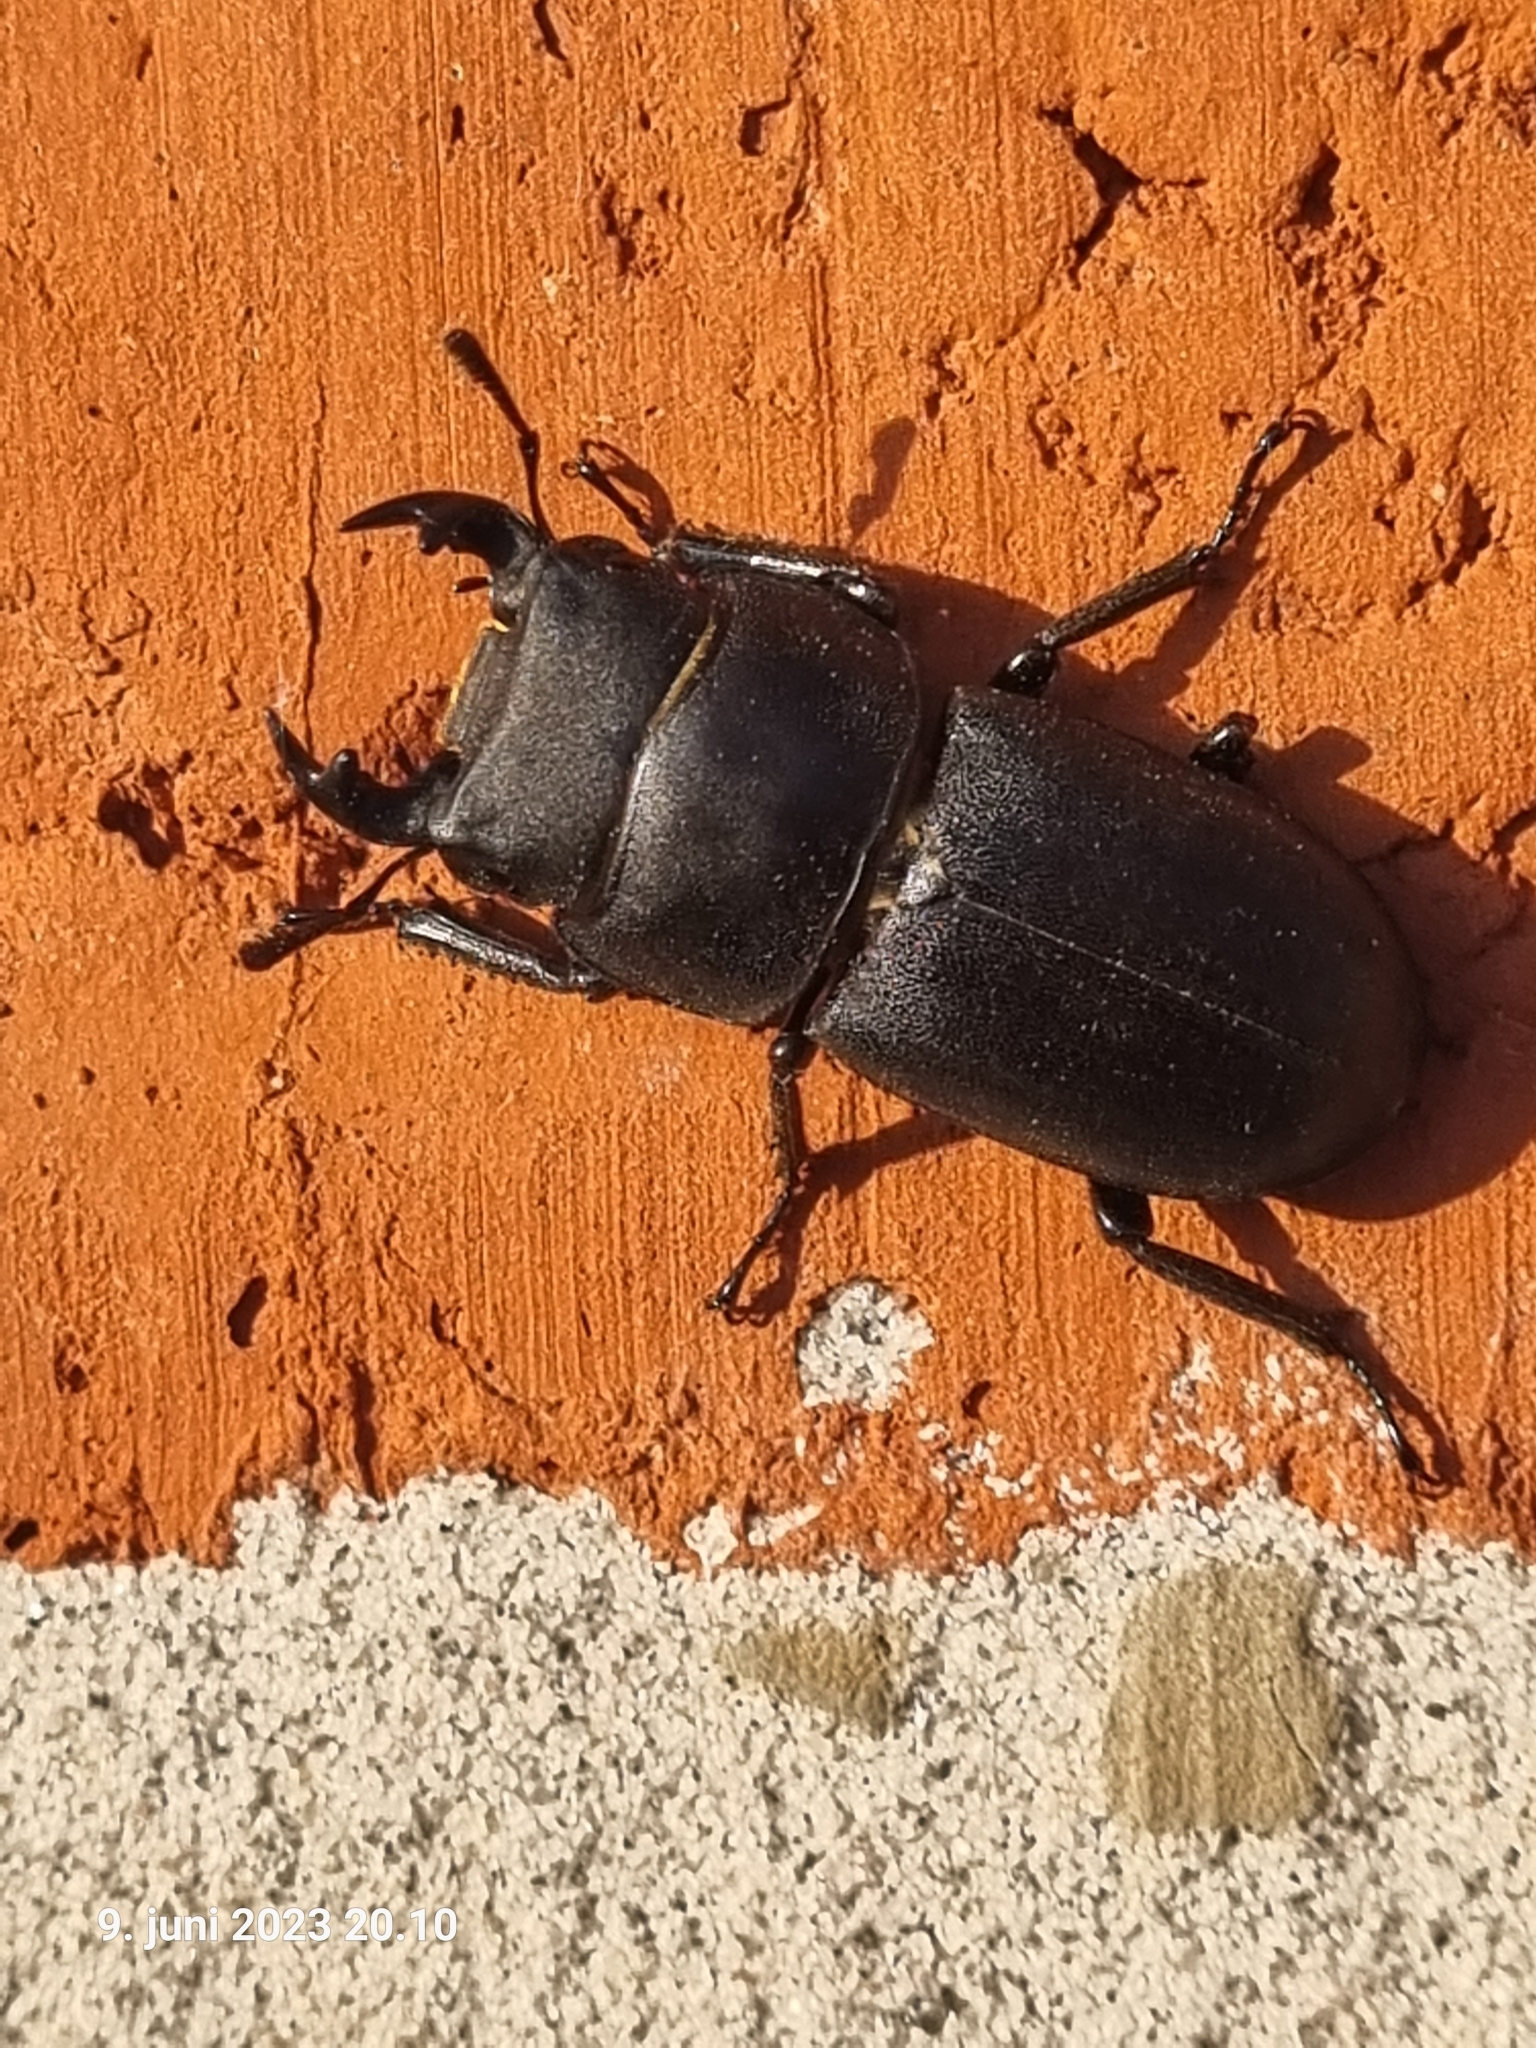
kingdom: Animalia
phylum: Arthropoda
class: Insecta
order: Coleoptera
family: Lucanidae
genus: Dorcus
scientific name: Dorcus parallelipipedus
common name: Lesser stag beetle
